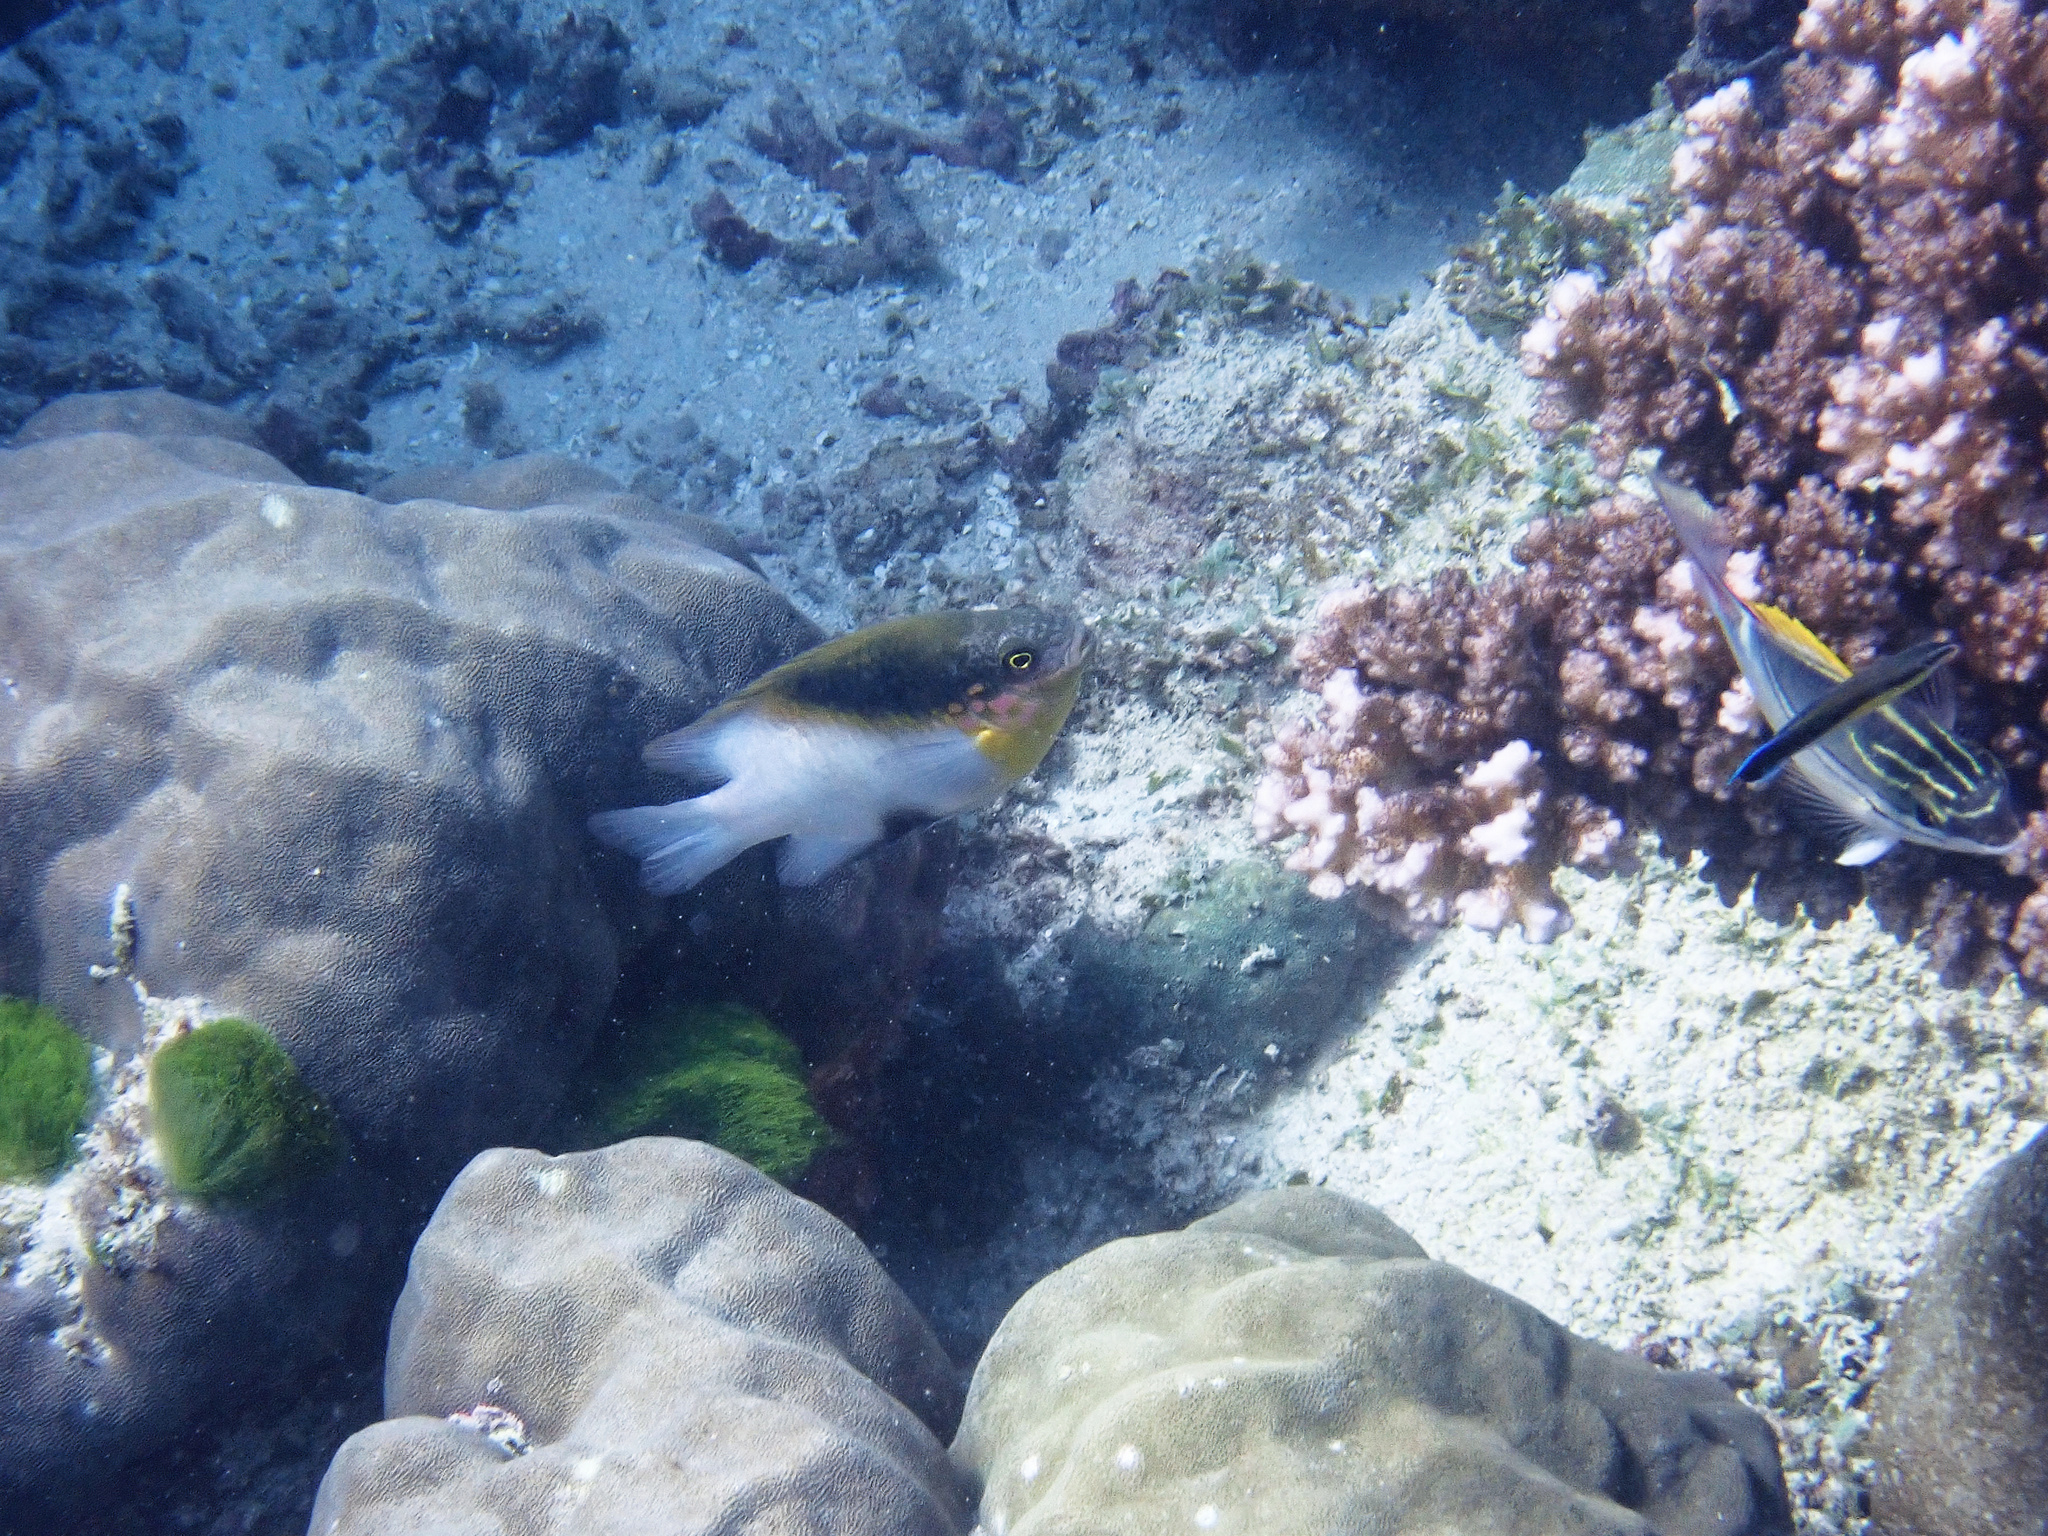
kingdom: Animalia
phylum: Chordata
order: Perciformes
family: Pomacentridae
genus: Dischistodus
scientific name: Dischistodus melanotus
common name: Black-vent damsel
